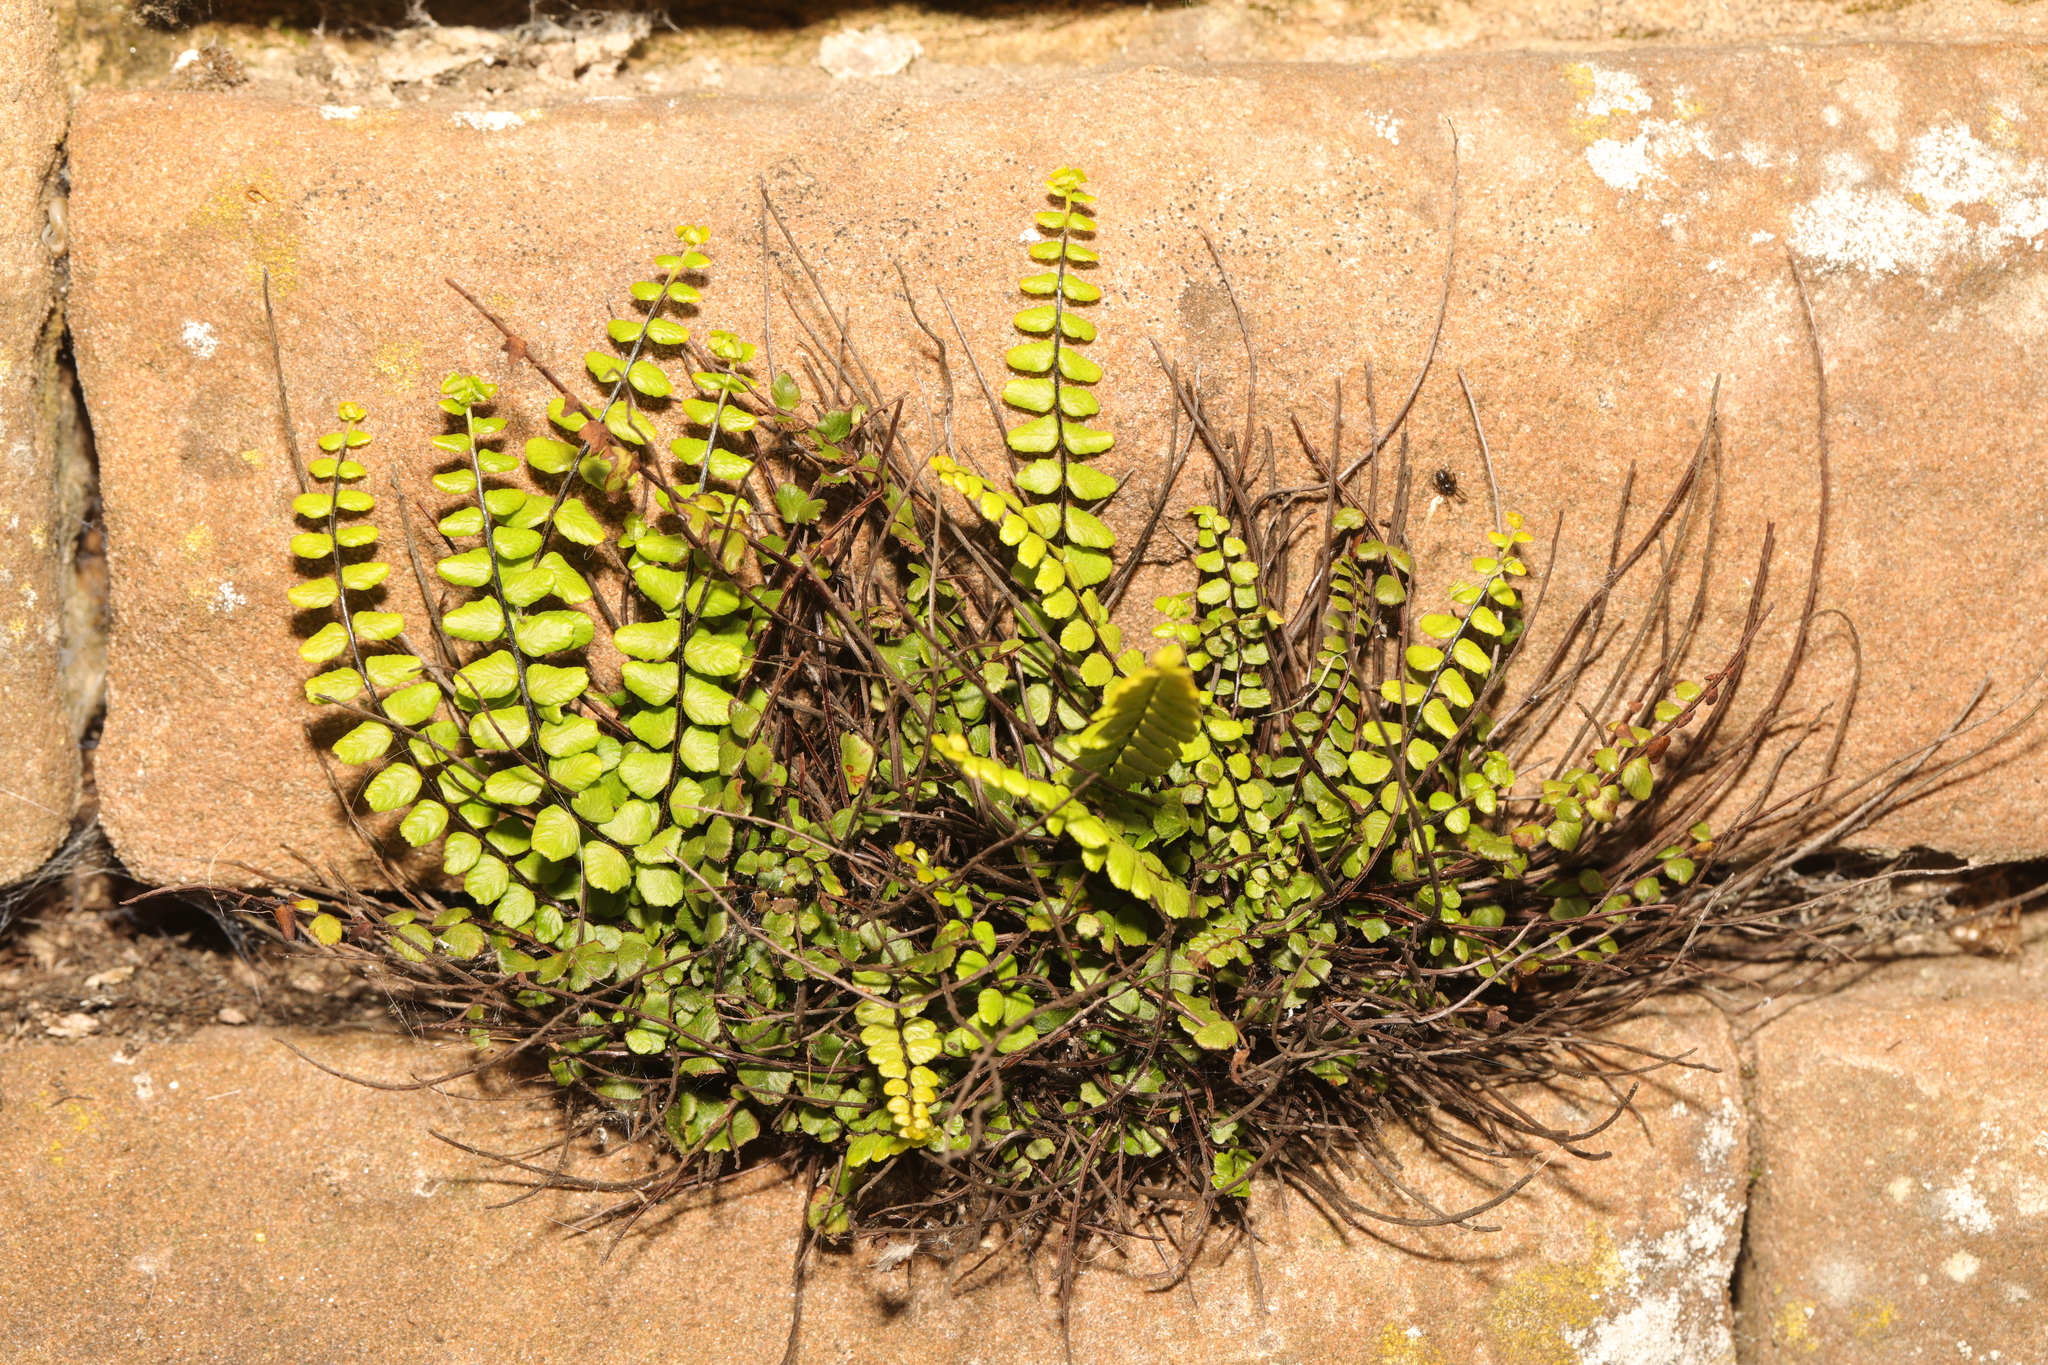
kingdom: Plantae
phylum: Tracheophyta
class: Polypodiopsida
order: Polypodiales
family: Aspleniaceae
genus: Asplenium
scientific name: Asplenium trichomanes
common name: Maidenhair spleenwort
